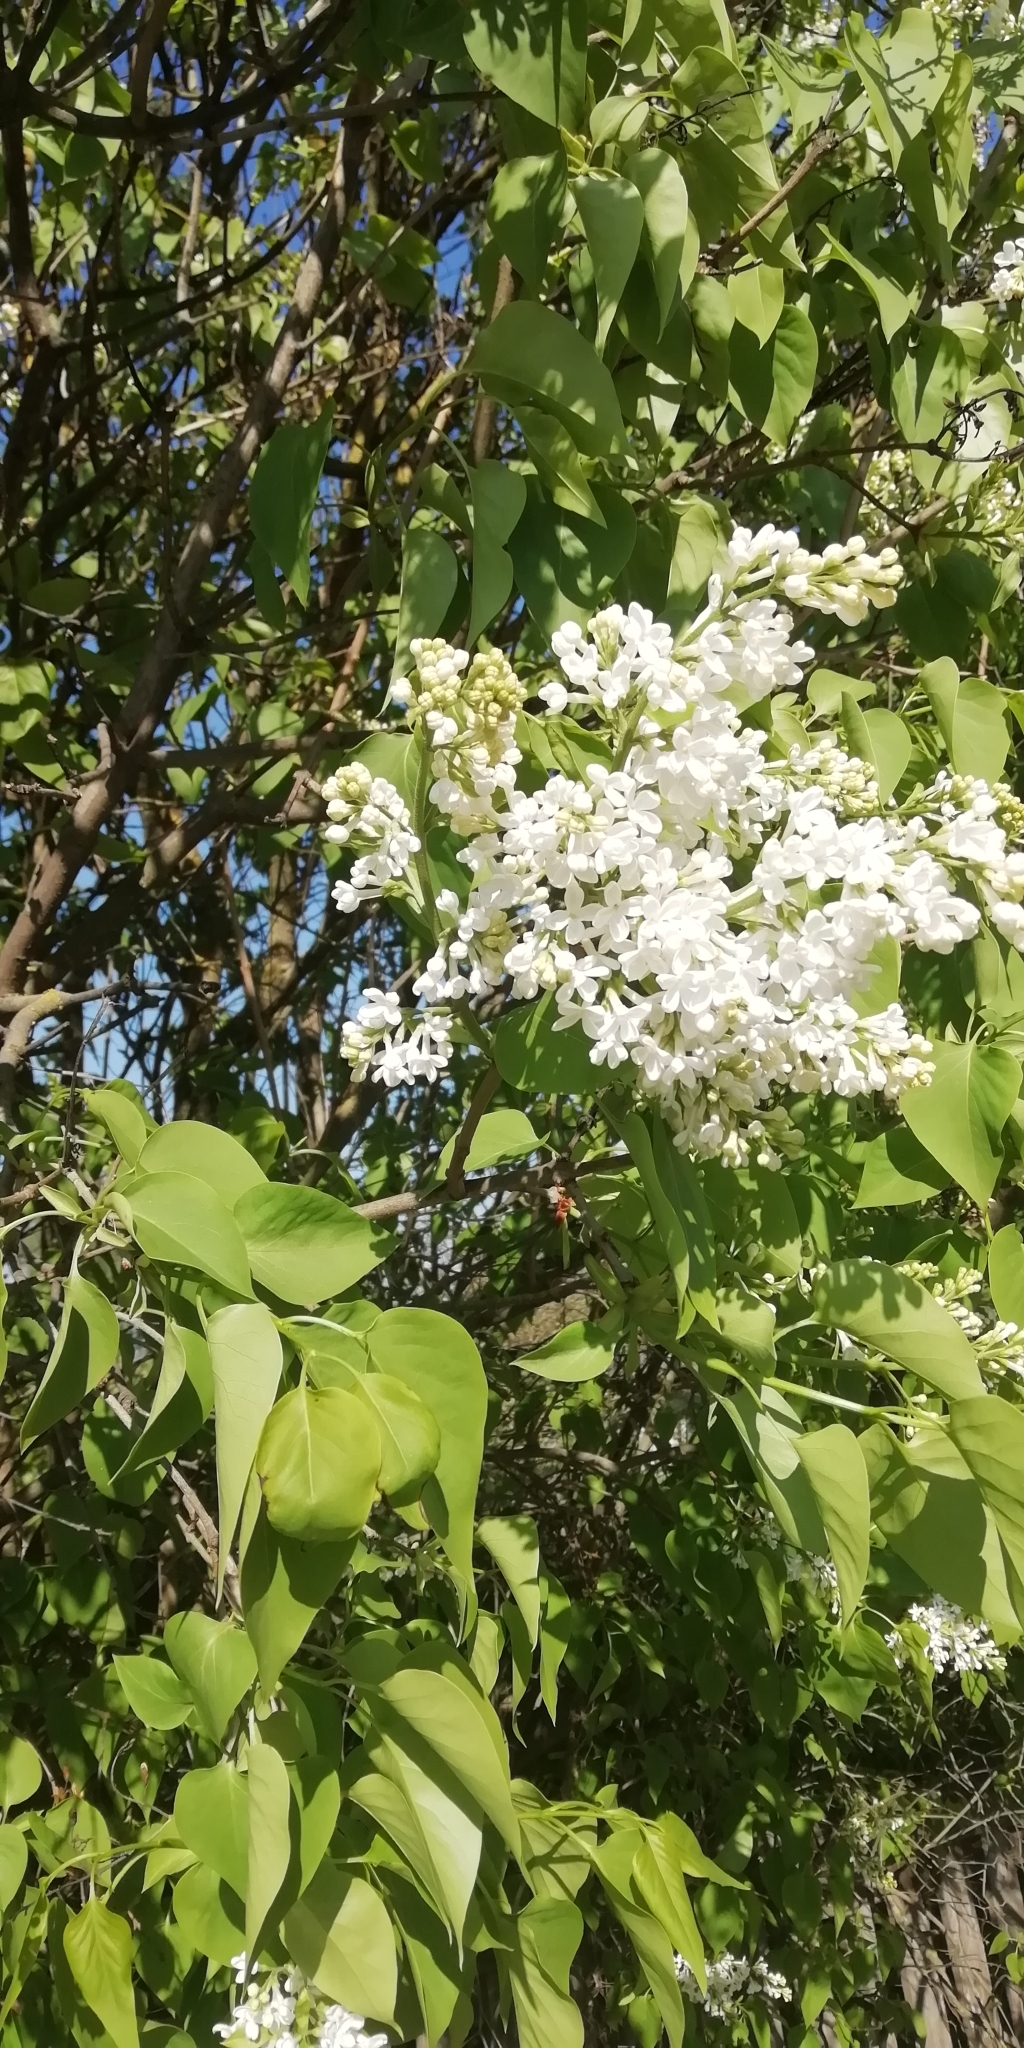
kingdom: Plantae
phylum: Tracheophyta
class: Magnoliopsida
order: Lamiales
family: Oleaceae
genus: Syringa
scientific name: Syringa vulgaris
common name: Common lilac
